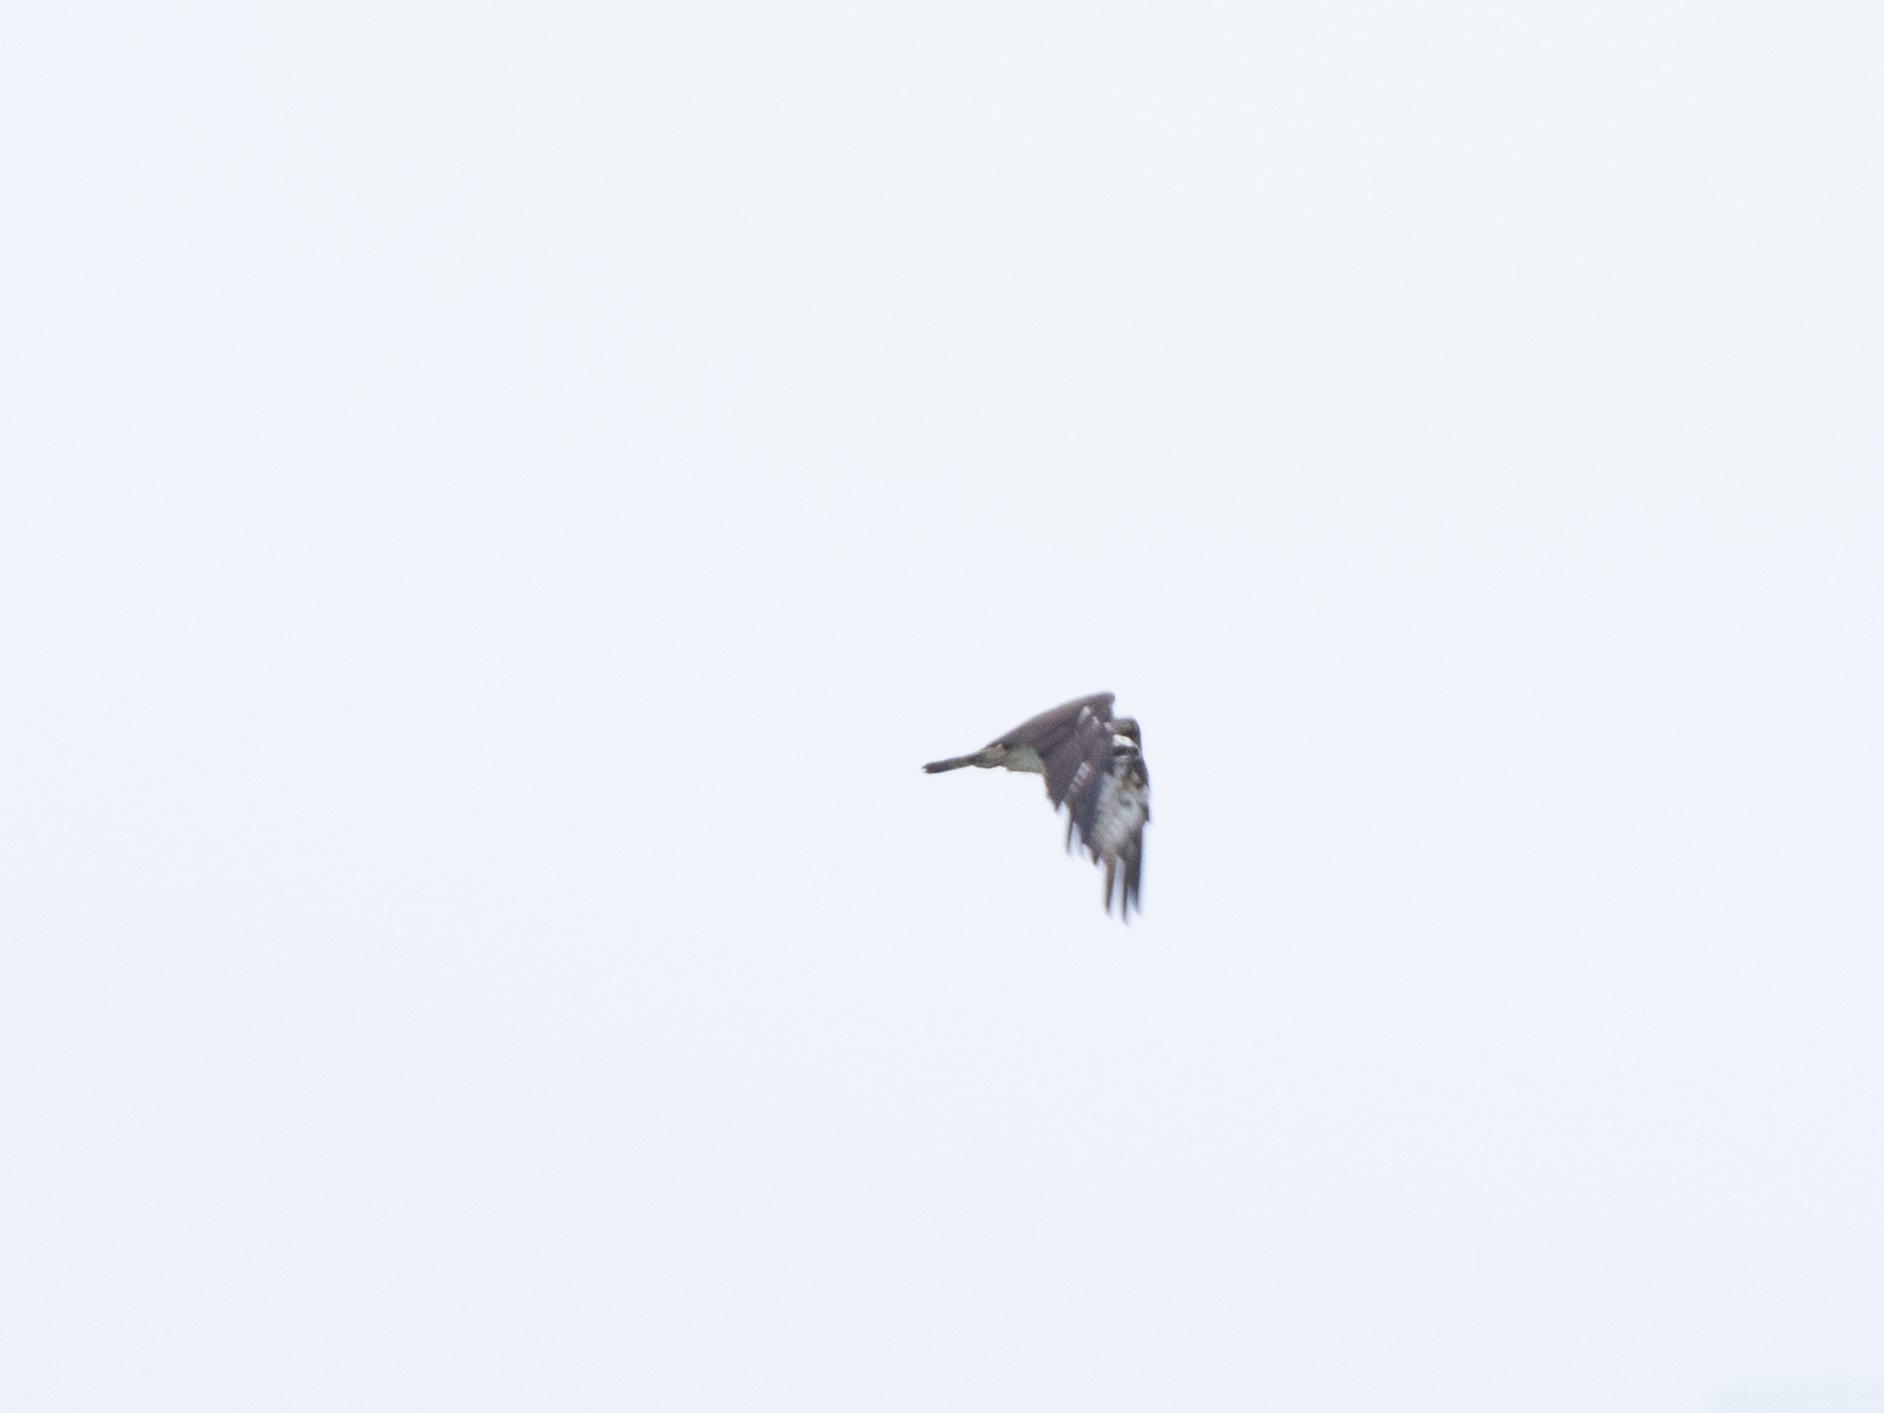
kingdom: Animalia
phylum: Chordata
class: Aves
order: Accipitriformes
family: Pandionidae
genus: Pandion
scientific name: Pandion haliaetus
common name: Osprey
